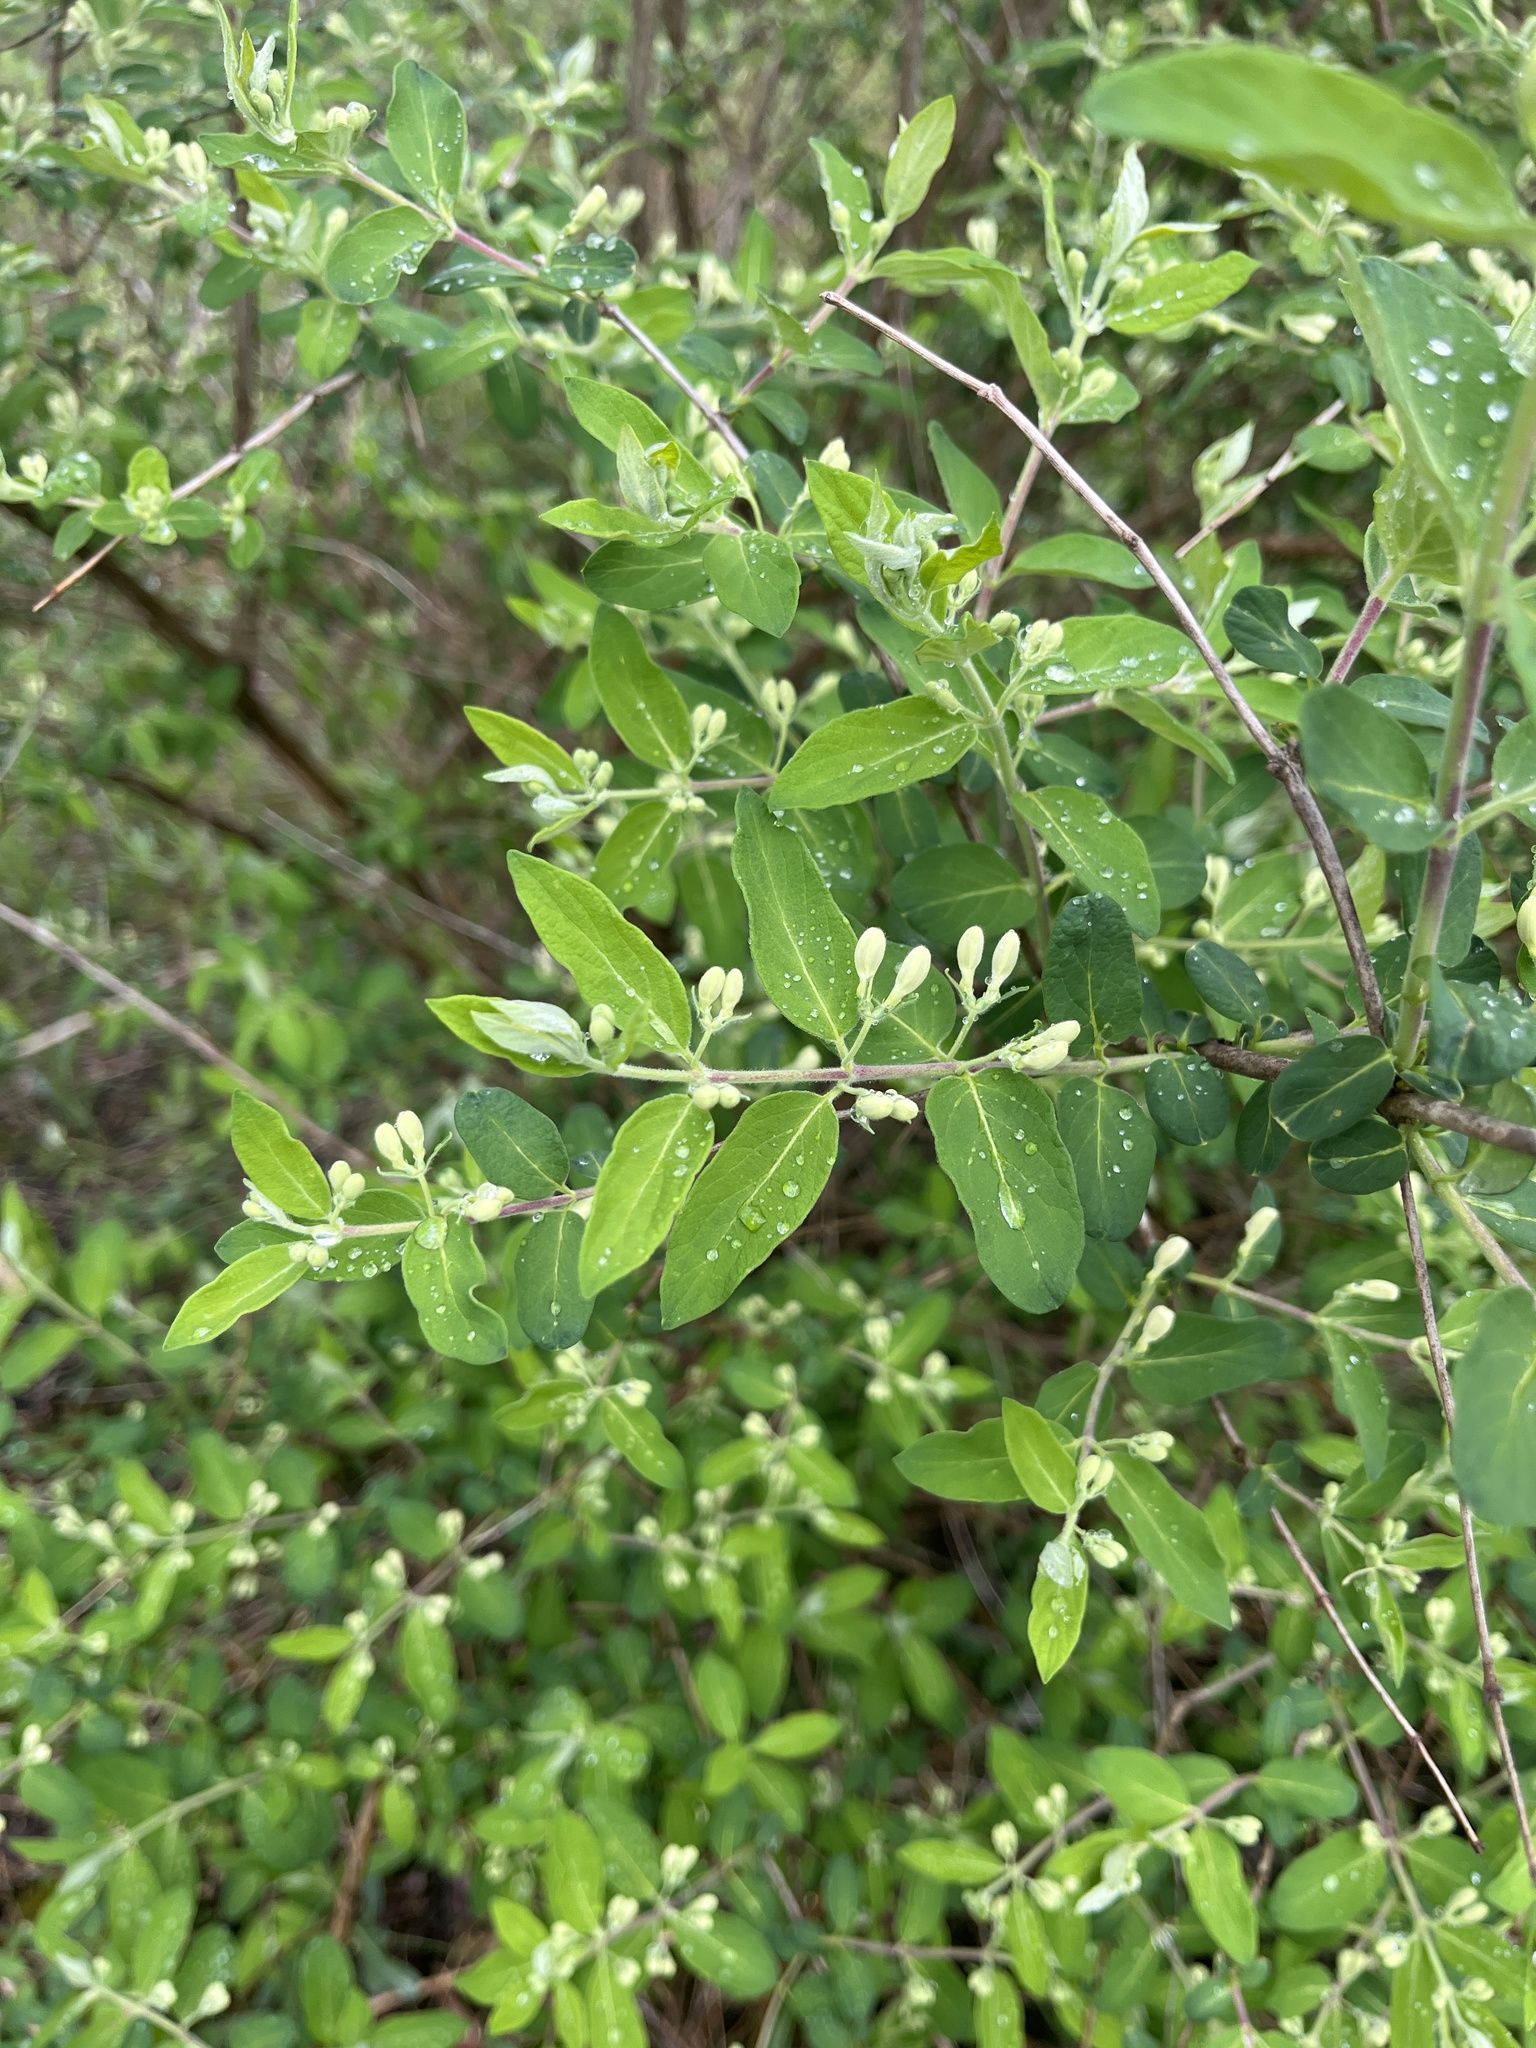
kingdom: Plantae
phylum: Tracheophyta
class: Magnoliopsida
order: Dipsacales
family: Caprifoliaceae
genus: Lonicera
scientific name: Lonicera morrowii
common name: Morrow's honeysuckle
